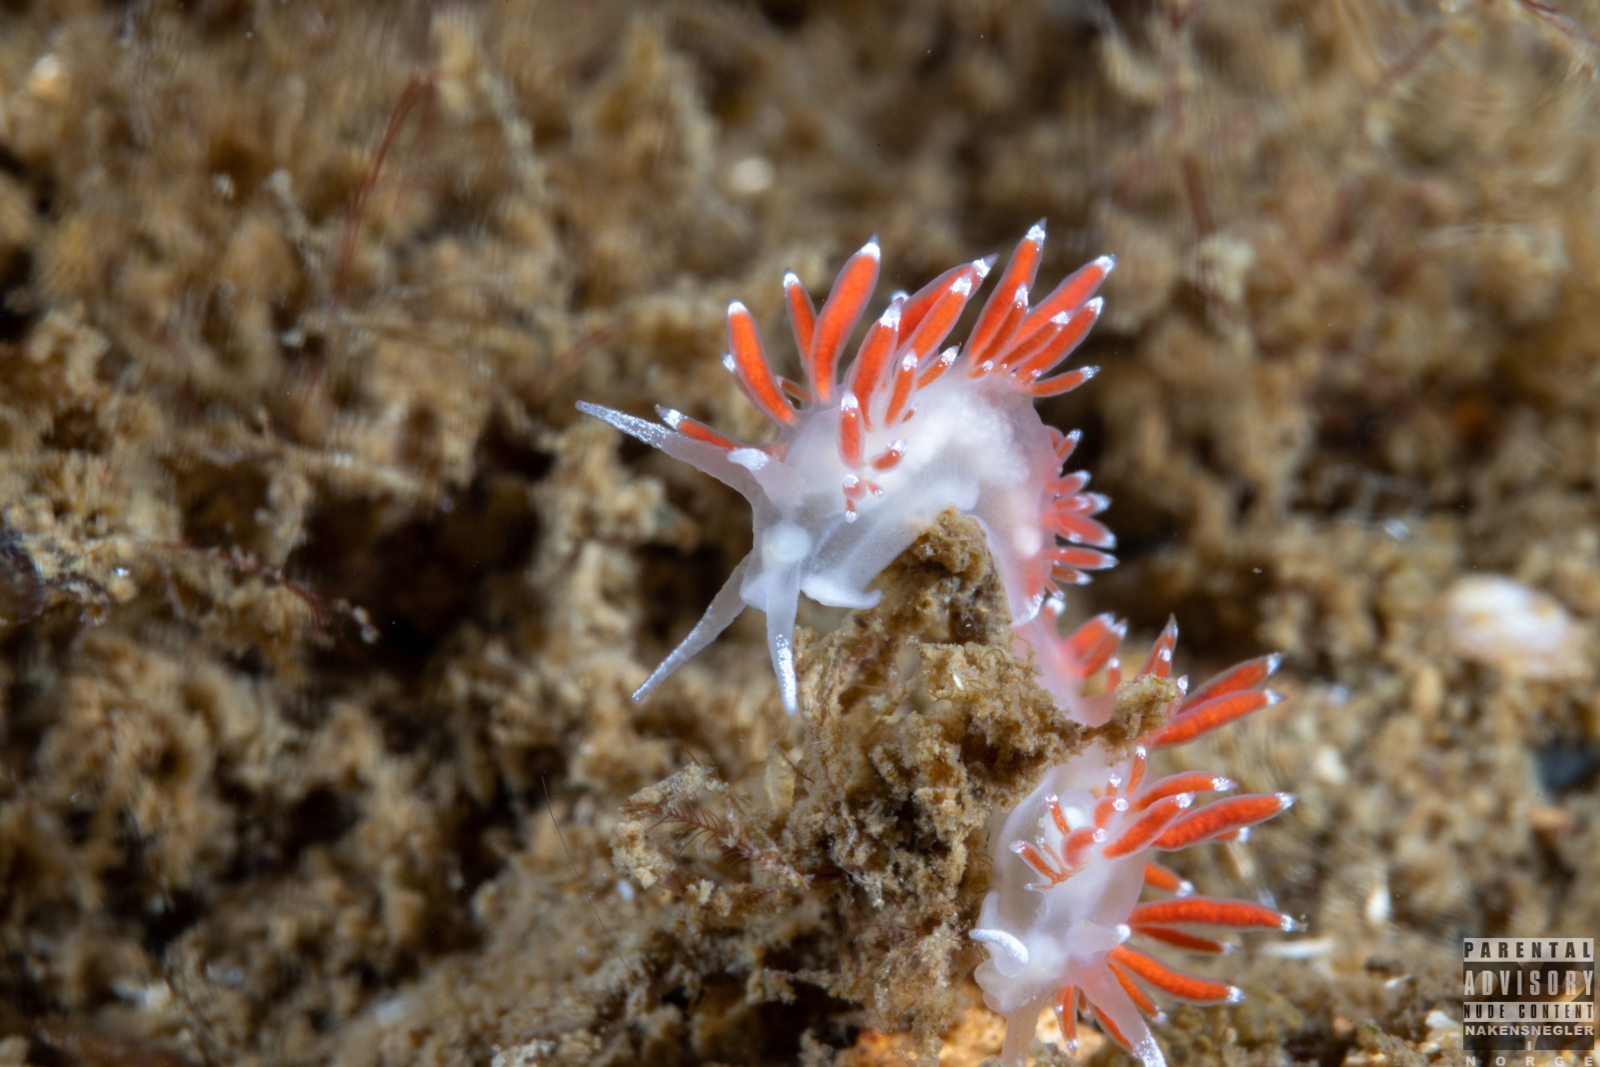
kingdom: Animalia
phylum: Mollusca
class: Gastropoda
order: Nudibranchia
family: Coryphellidae
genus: Coryphella
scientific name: Coryphella gracilis
